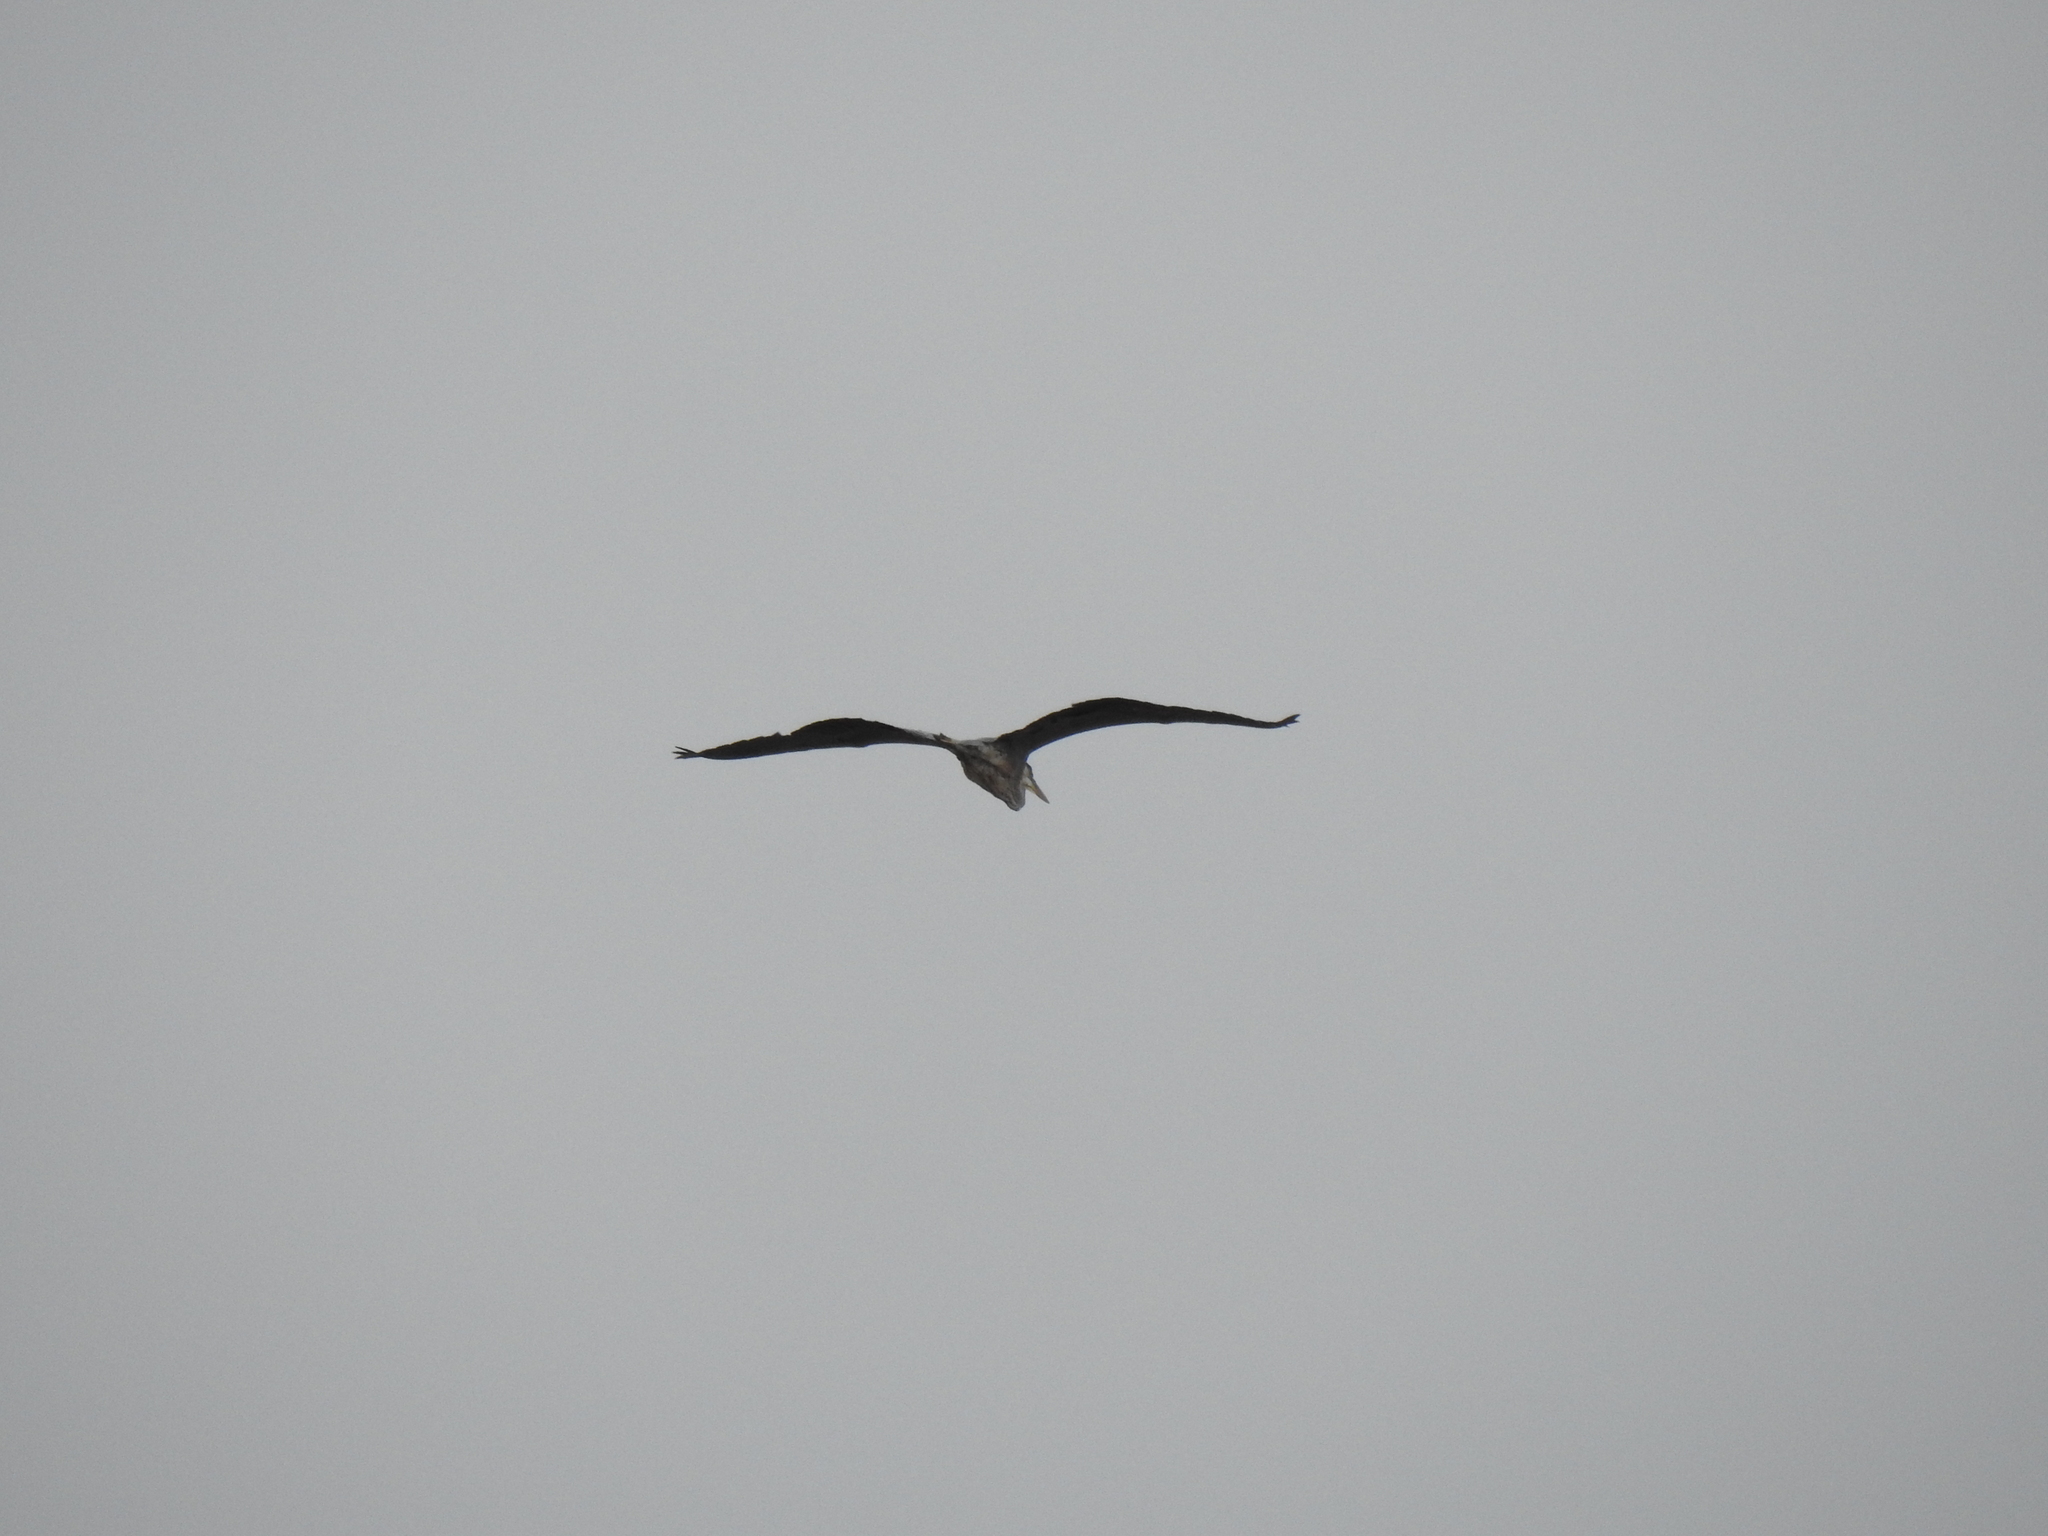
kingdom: Animalia
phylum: Chordata
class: Aves
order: Pelecaniformes
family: Ardeidae
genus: Ardea
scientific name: Ardea herodias
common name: Great blue heron
